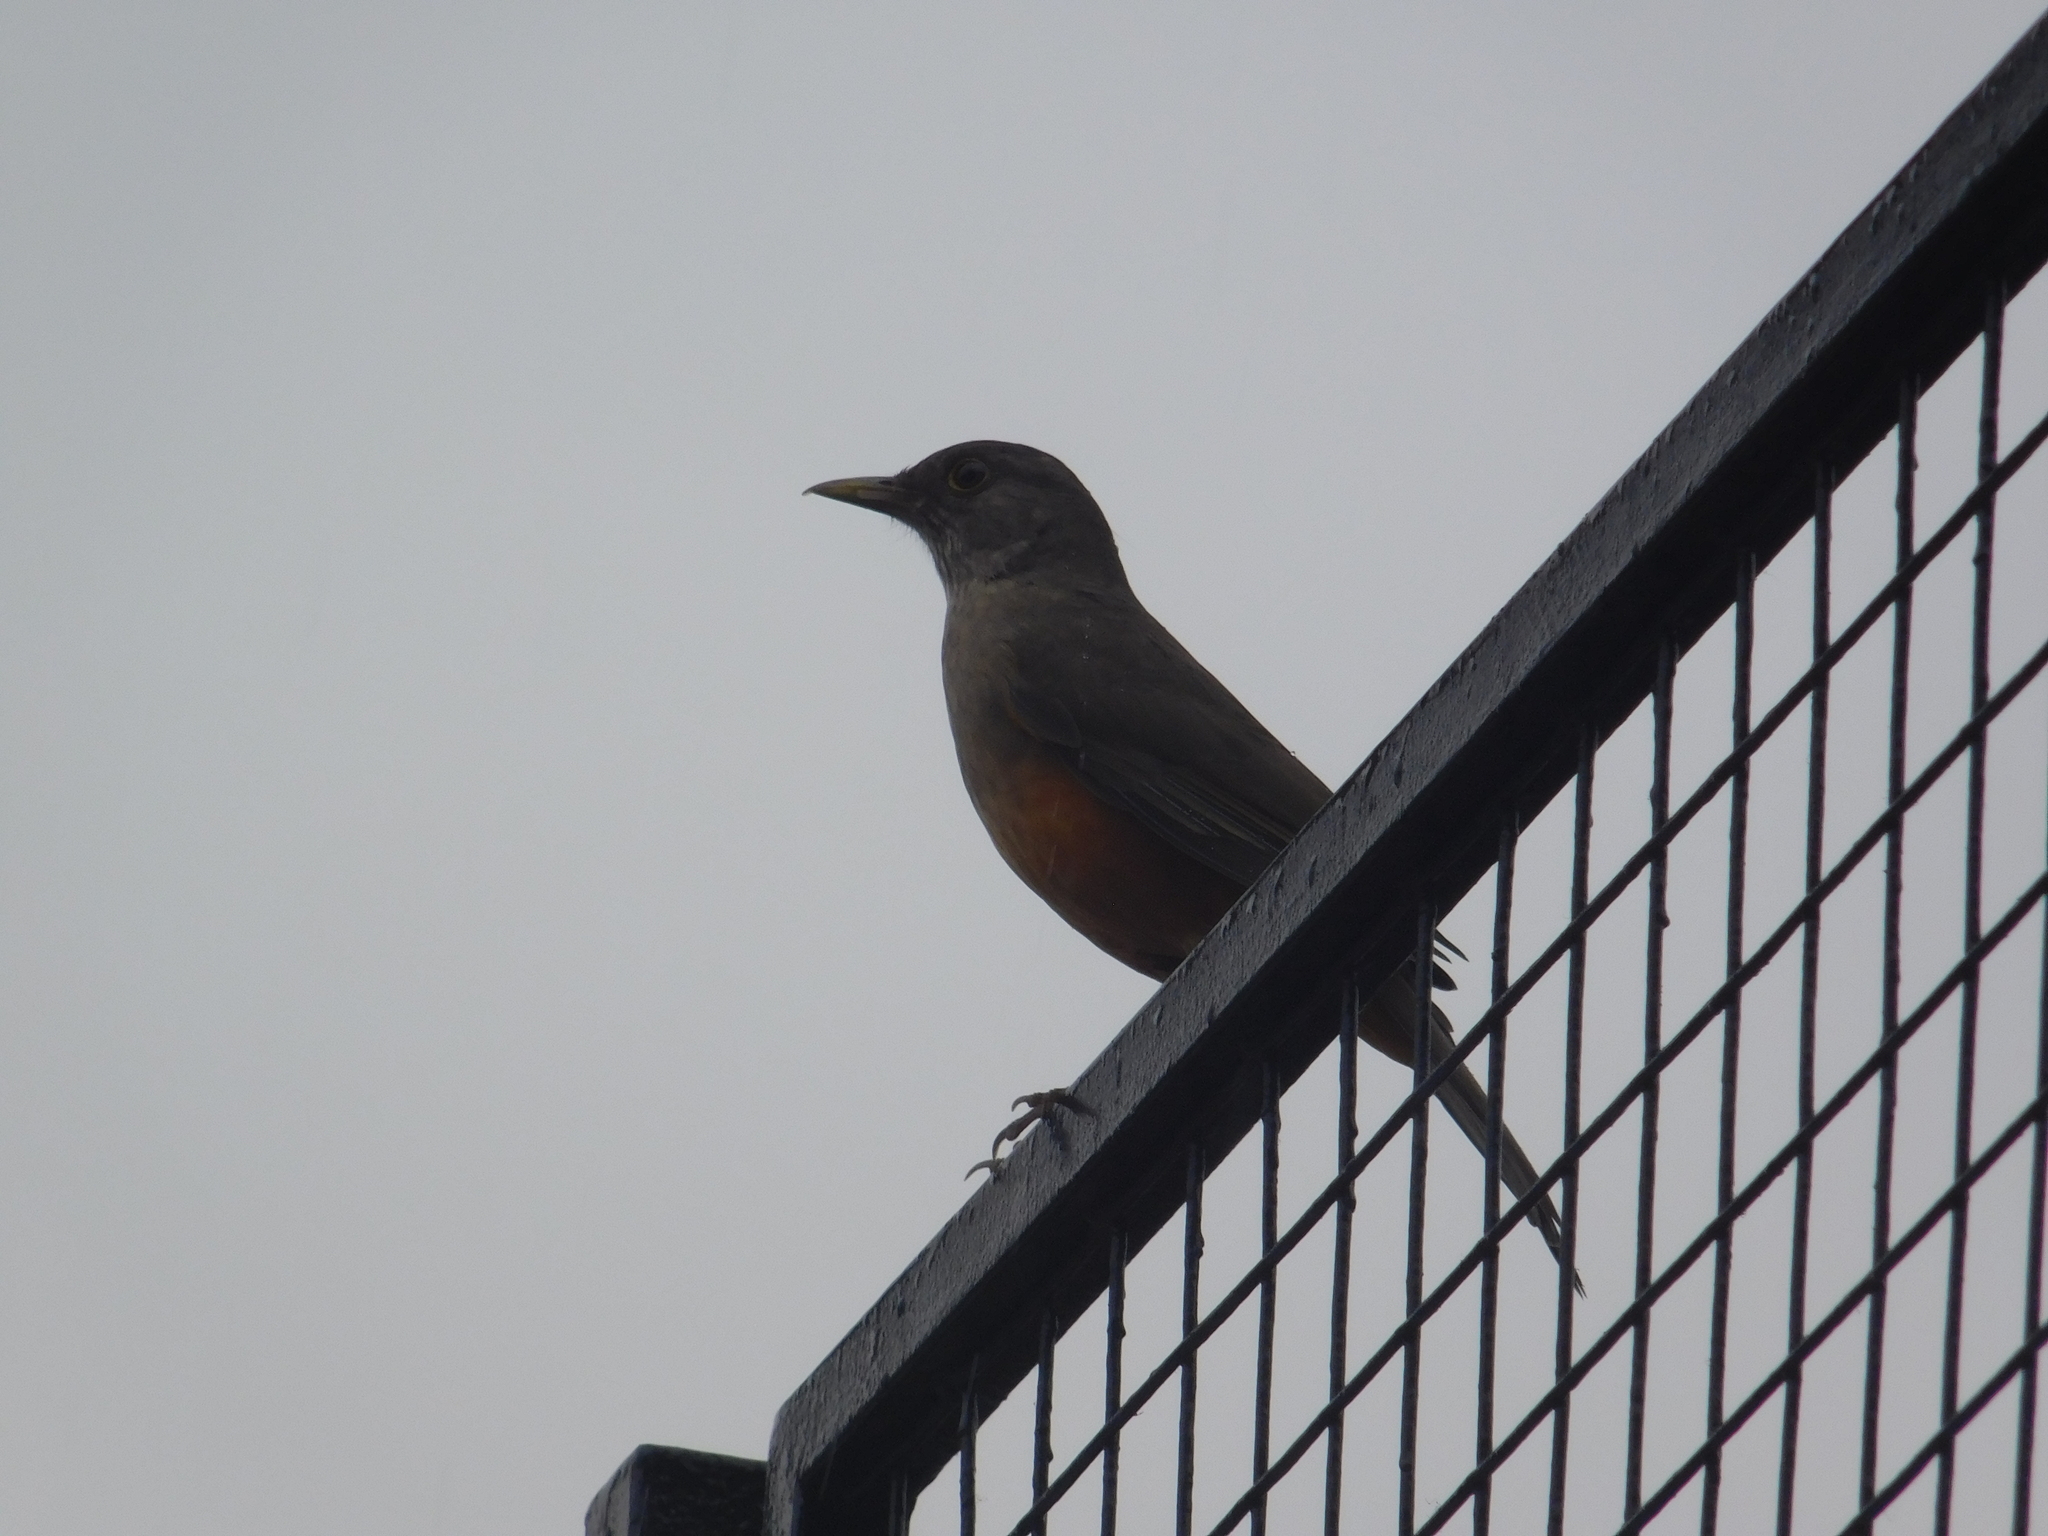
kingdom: Animalia
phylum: Chordata
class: Aves
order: Passeriformes
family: Turdidae
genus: Turdus
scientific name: Turdus rufiventris
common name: Rufous-bellied thrush
